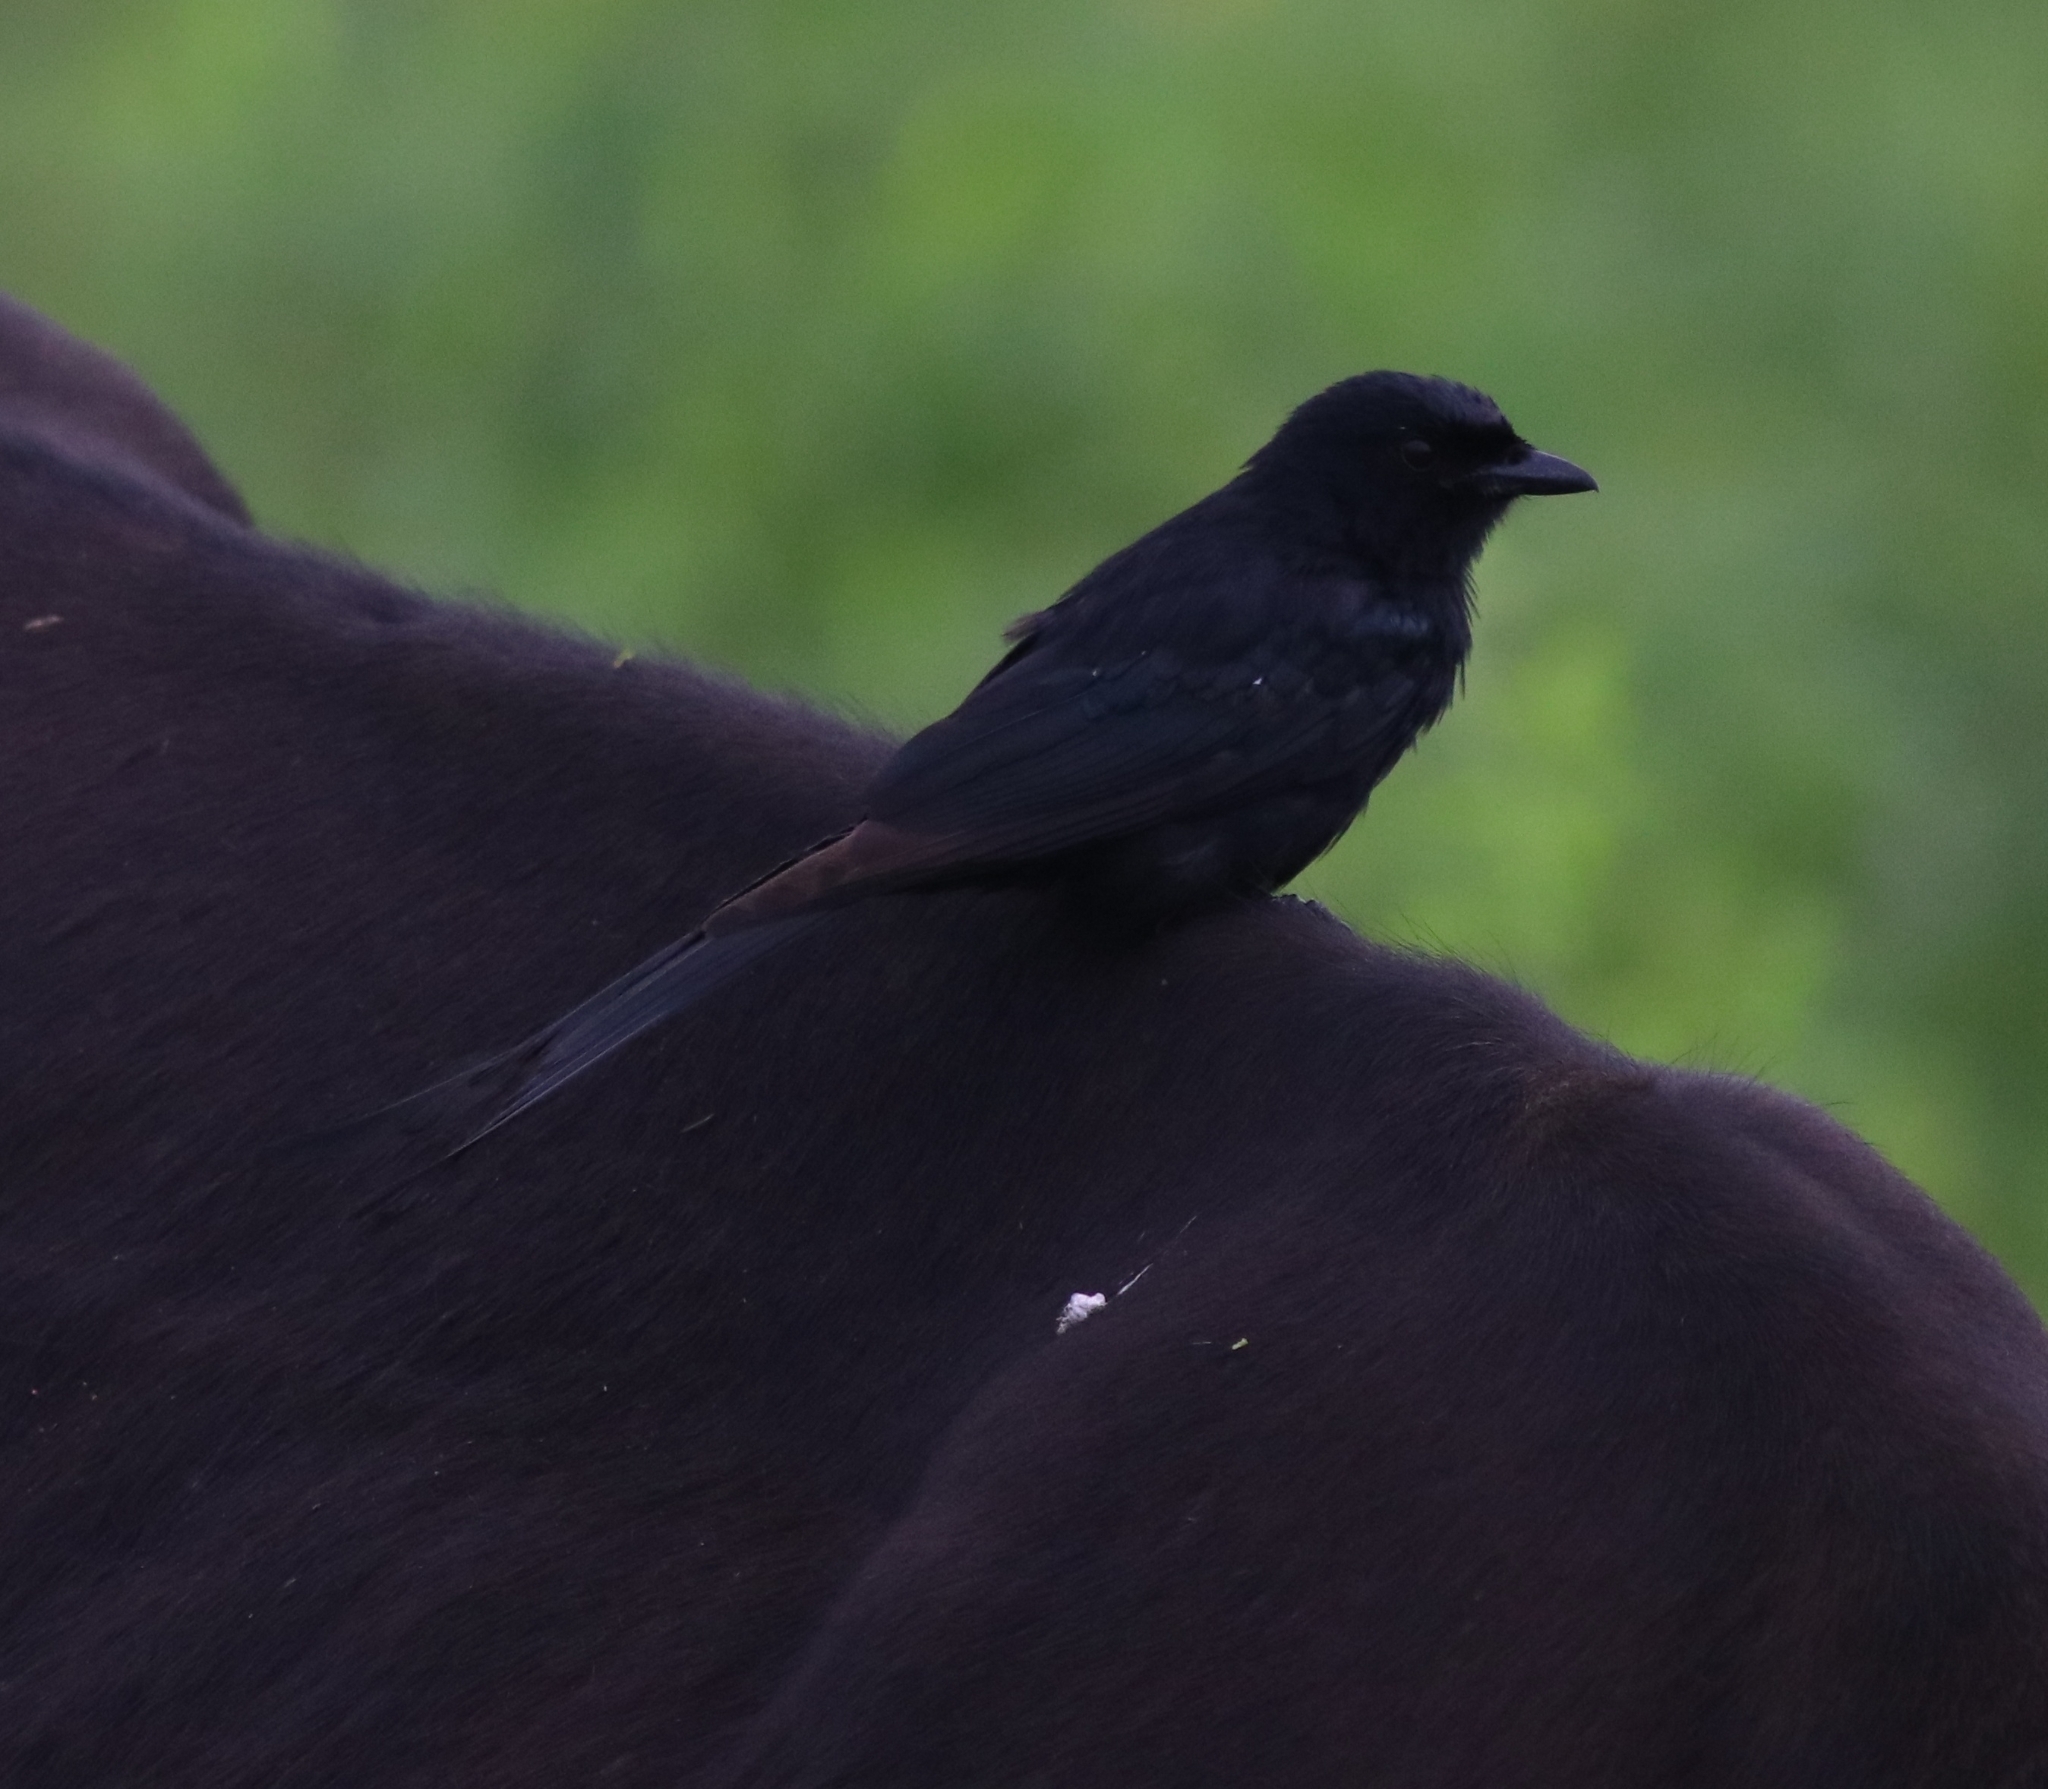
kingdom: Animalia
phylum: Chordata
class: Aves
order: Passeriformes
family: Dicruridae
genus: Dicrurus
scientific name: Dicrurus macrocercus
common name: Black drongo
